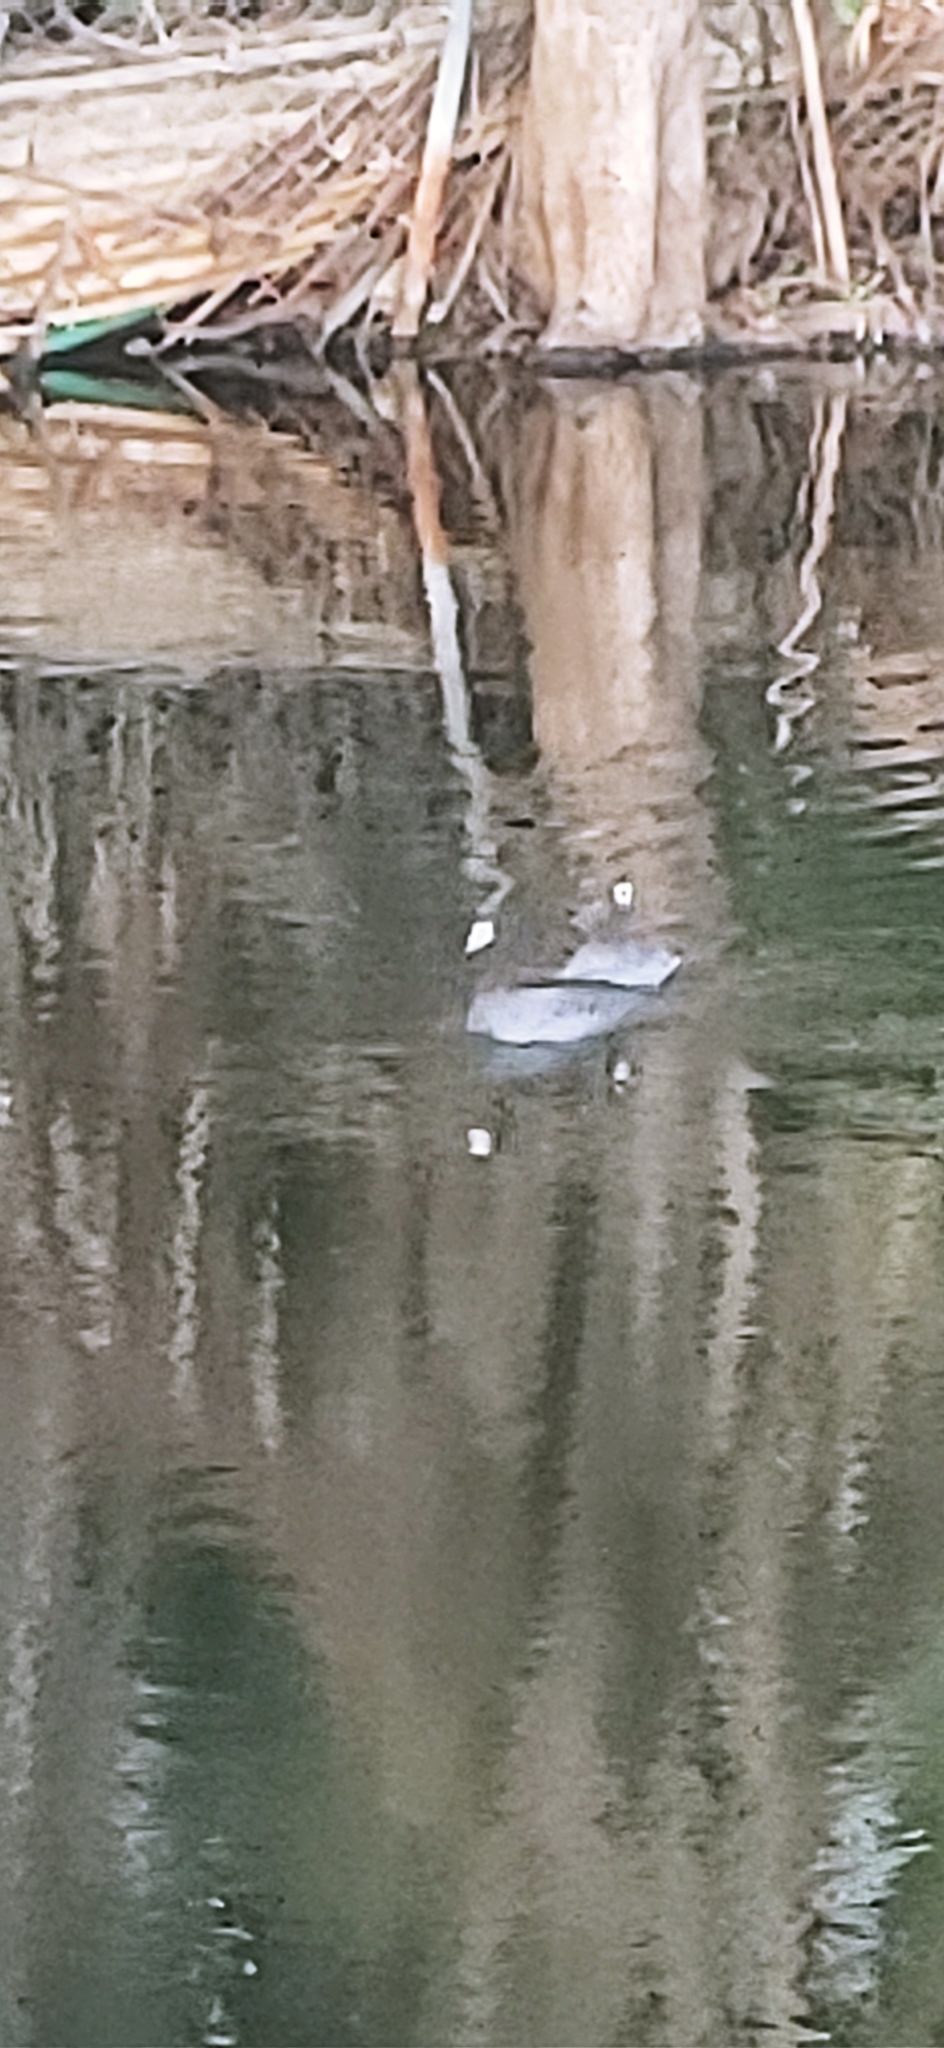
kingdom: Animalia
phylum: Chordata
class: Aves
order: Gruiformes
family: Rallidae
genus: Fulica
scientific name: Fulica americana
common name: American coot
